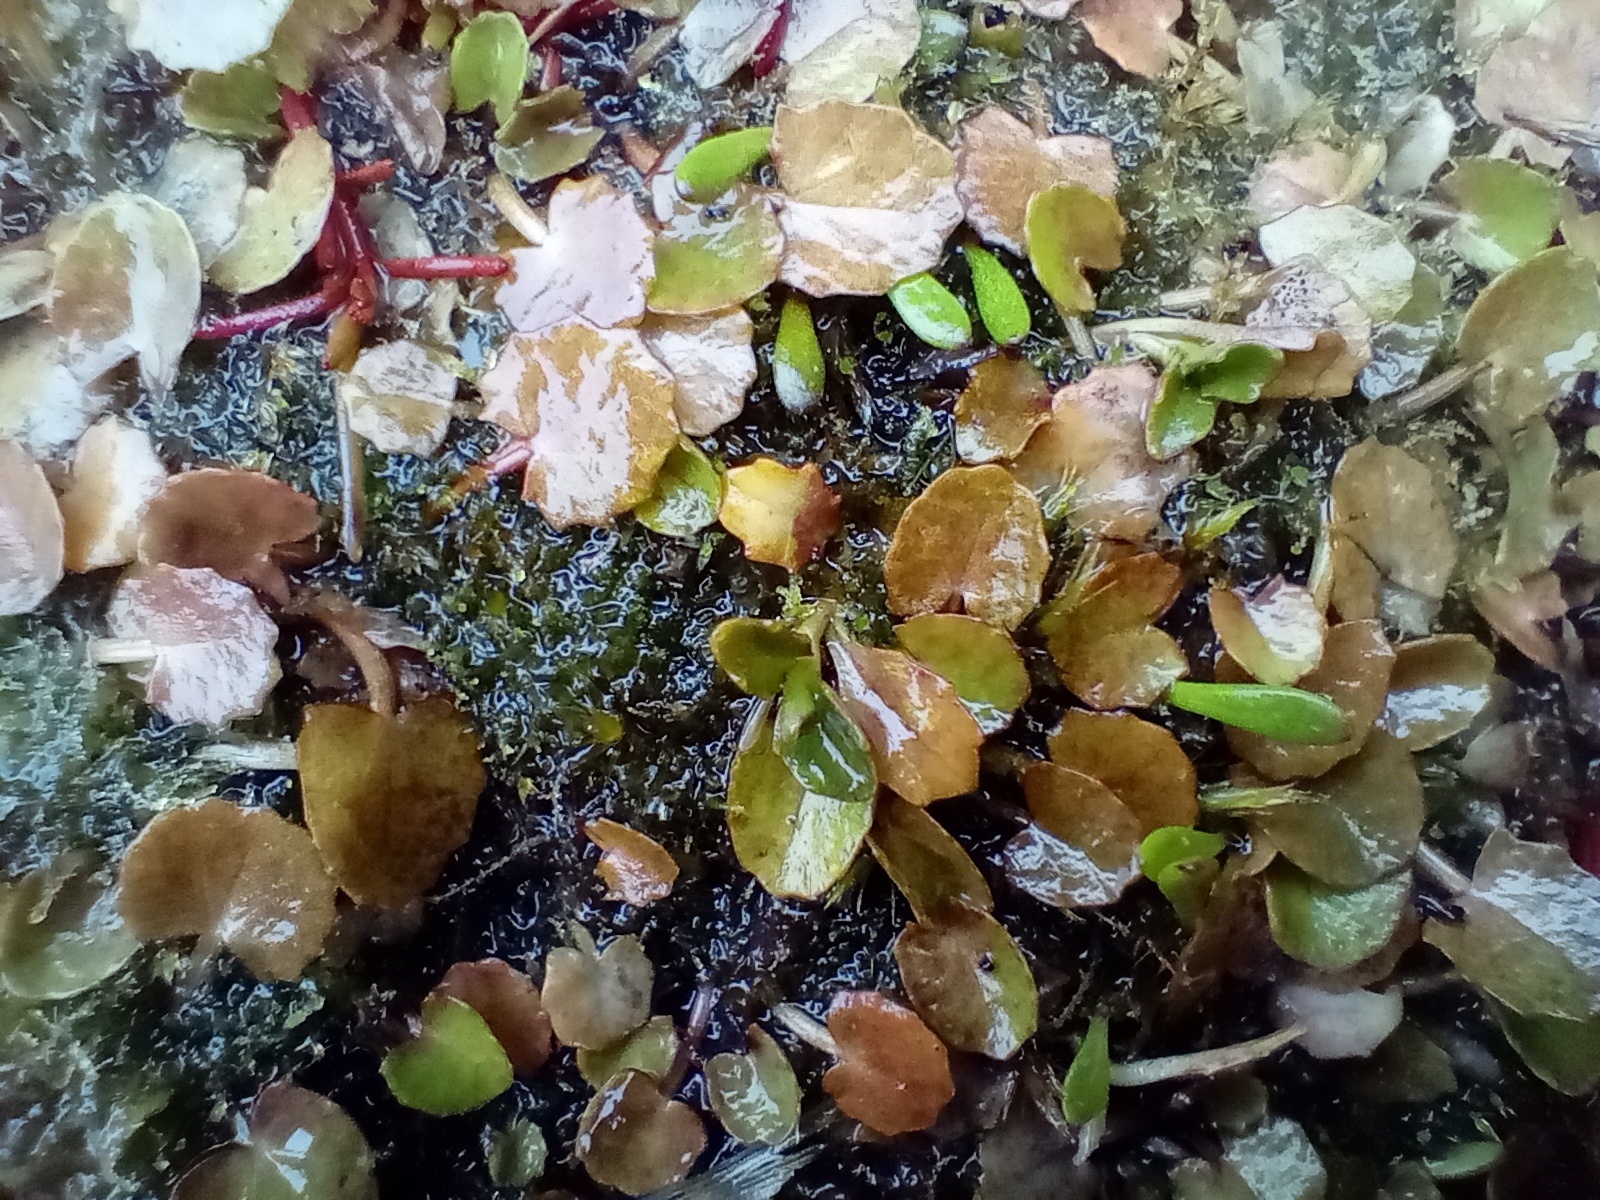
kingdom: Plantae
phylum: Tracheophyta
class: Magnoliopsida
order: Apiales
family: Apiaceae
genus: Centella
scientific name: Centella uniflora
